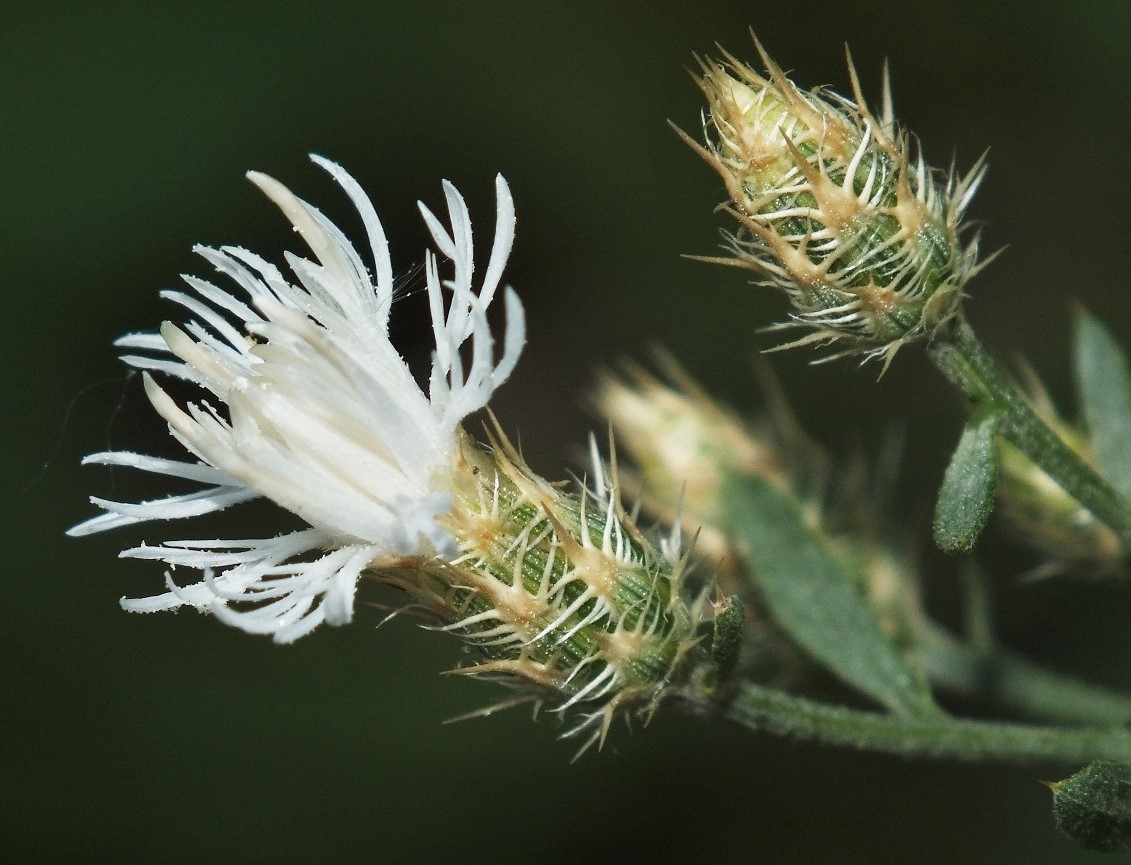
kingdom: Plantae
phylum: Tracheophyta
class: Magnoliopsida
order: Asterales
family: Asteraceae
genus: Centaurea
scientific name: Centaurea diffusa
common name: Diffuse knapweed
